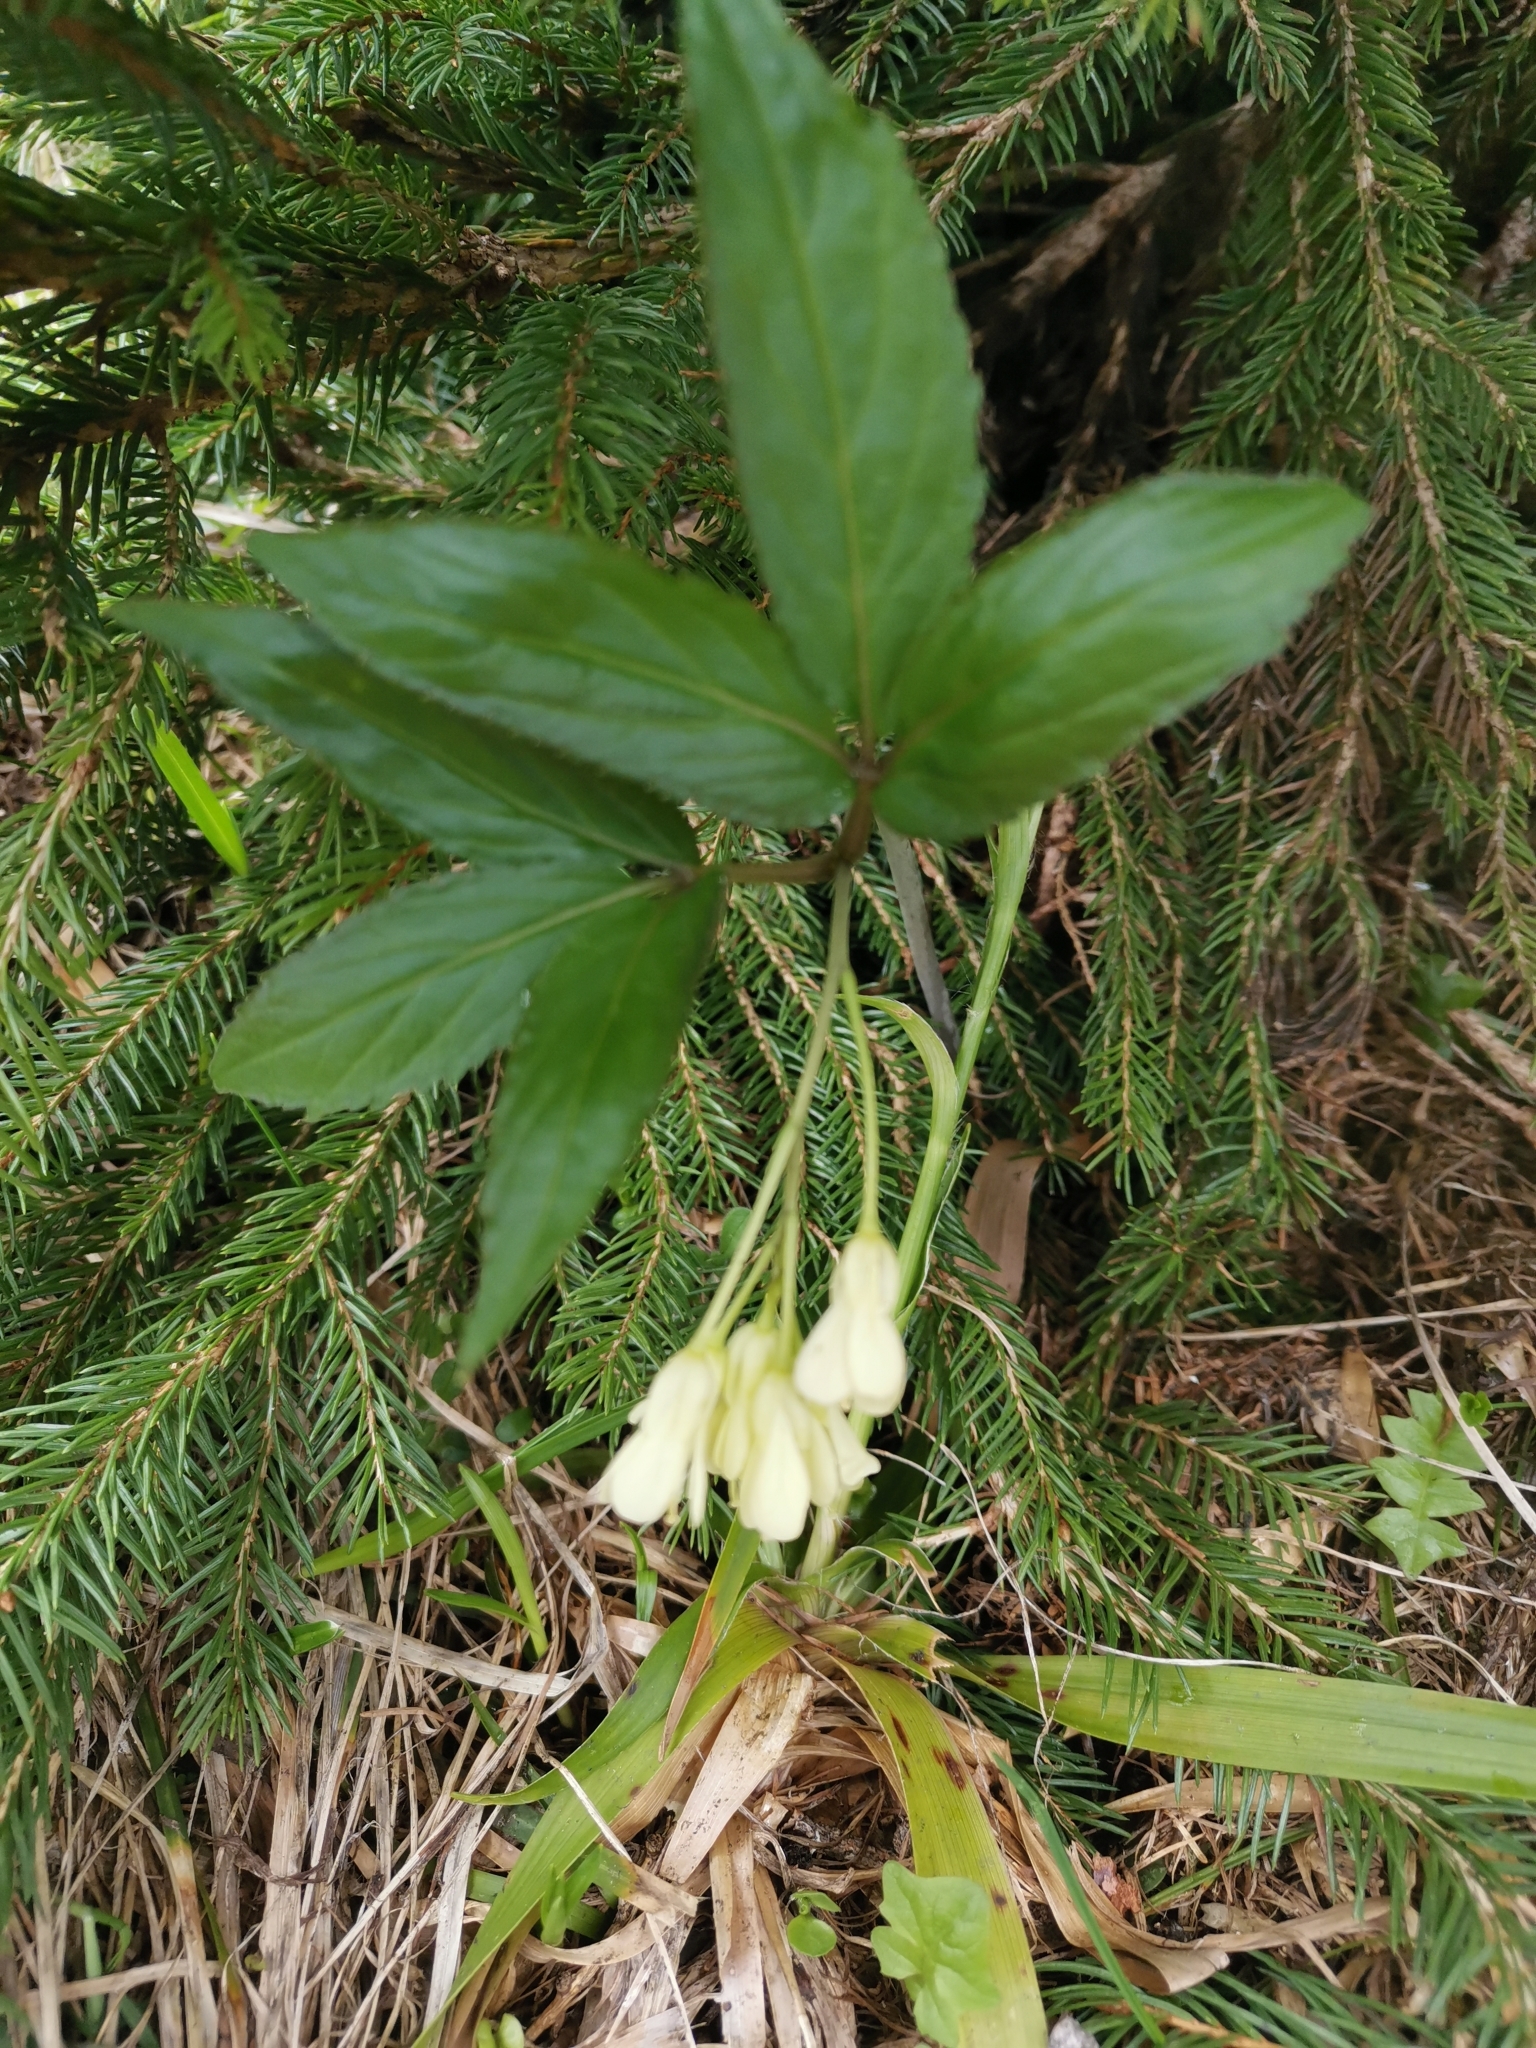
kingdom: Plantae
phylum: Tracheophyta
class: Magnoliopsida
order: Brassicales
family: Brassicaceae
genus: Cardamine
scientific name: Cardamine enneaphyllos
